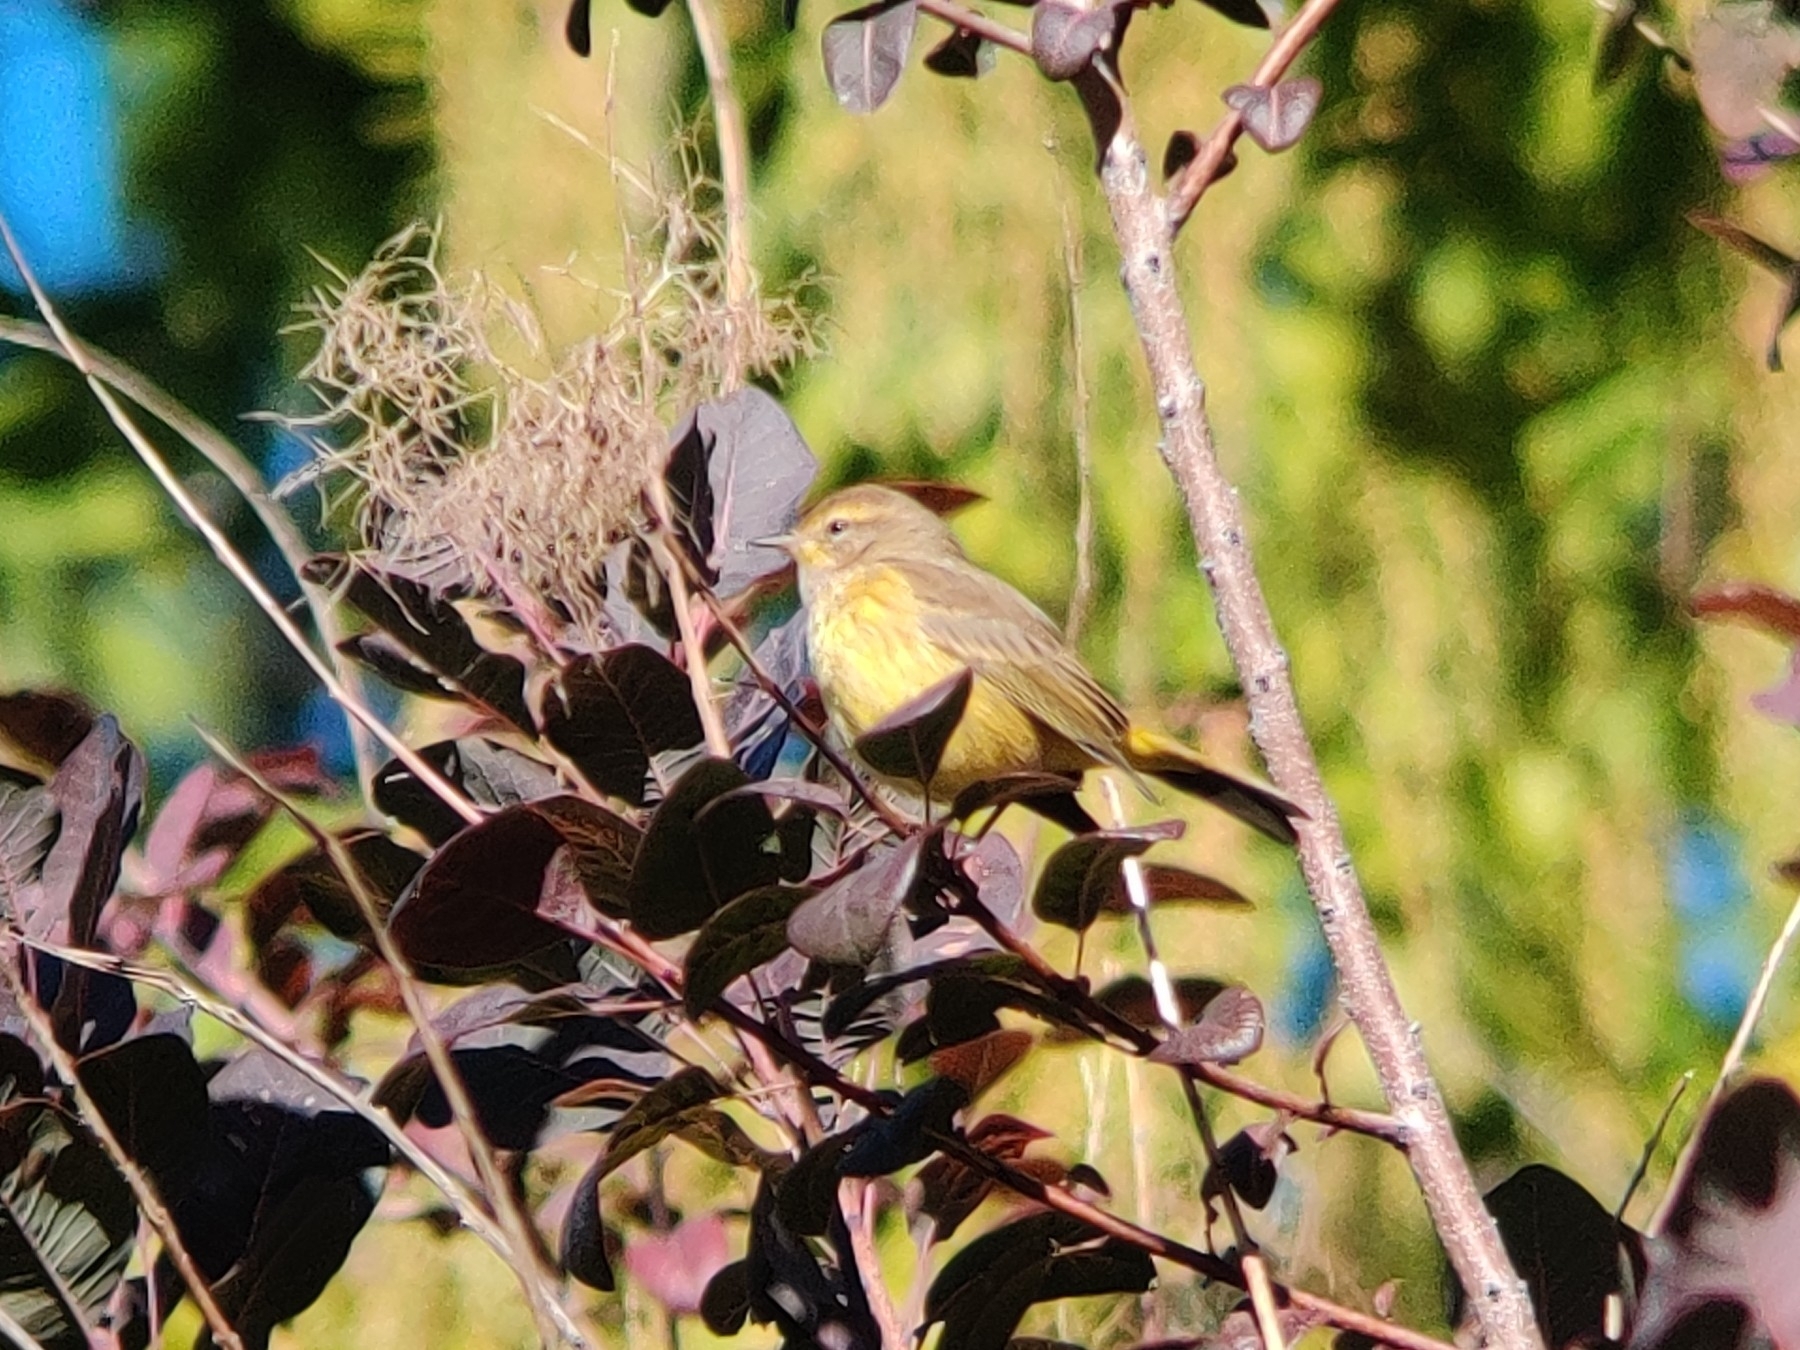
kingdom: Animalia
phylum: Chordata
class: Aves
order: Passeriformes
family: Parulidae
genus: Setophaga
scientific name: Setophaga palmarum
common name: Palm warbler
